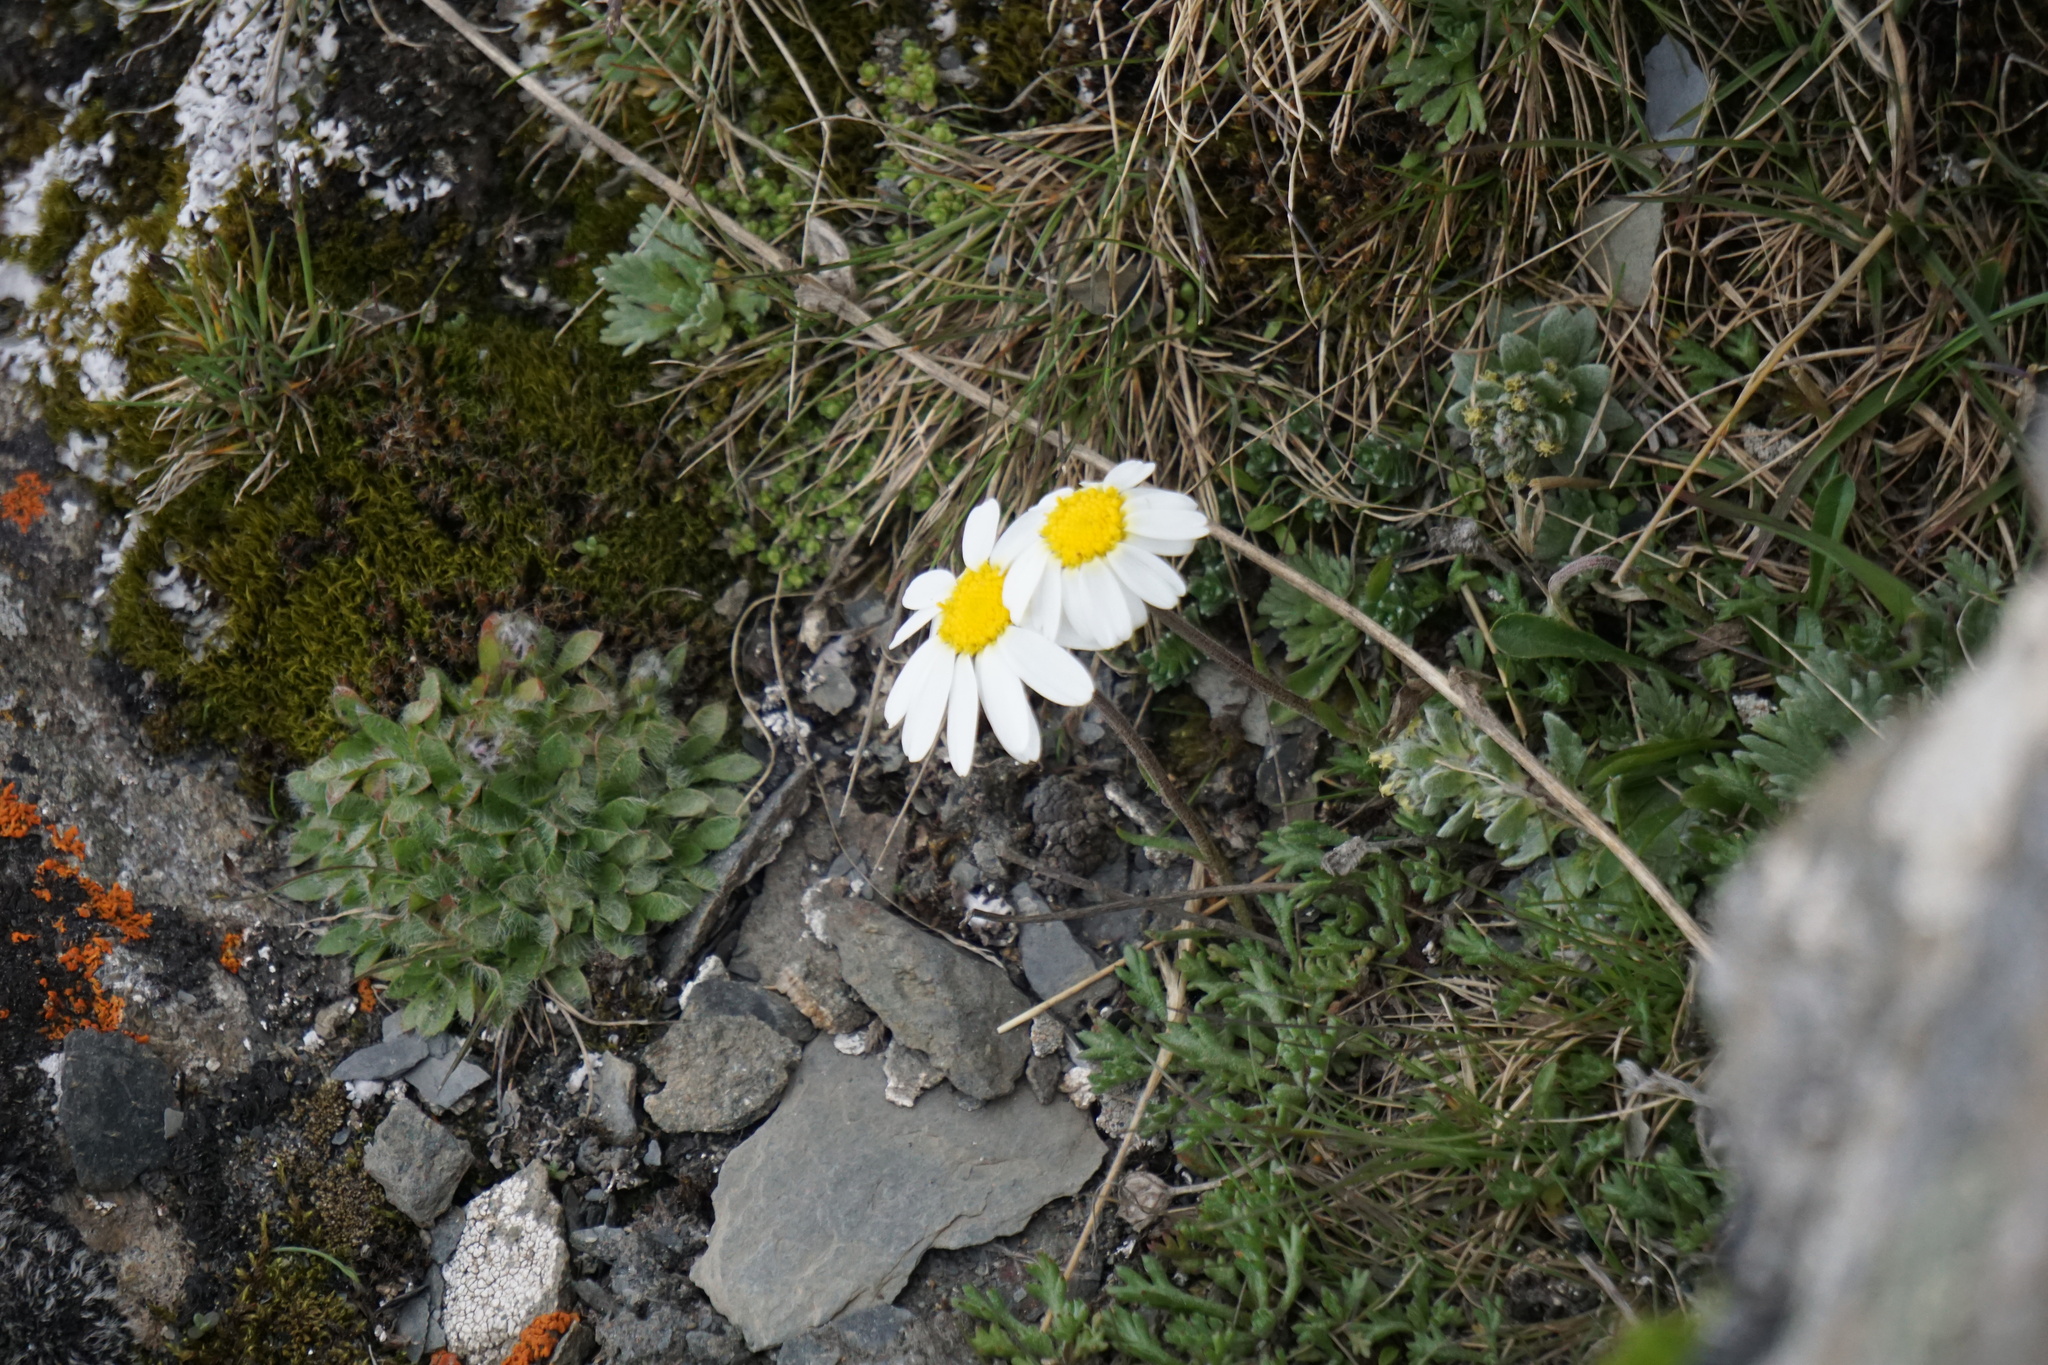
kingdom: Plantae
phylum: Tracheophyta
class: Magnoliopsida
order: Asterales
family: Asteraceae
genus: Leucanthemopsis
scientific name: Leucanthemopsis alpina
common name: Alpine moon daisy
